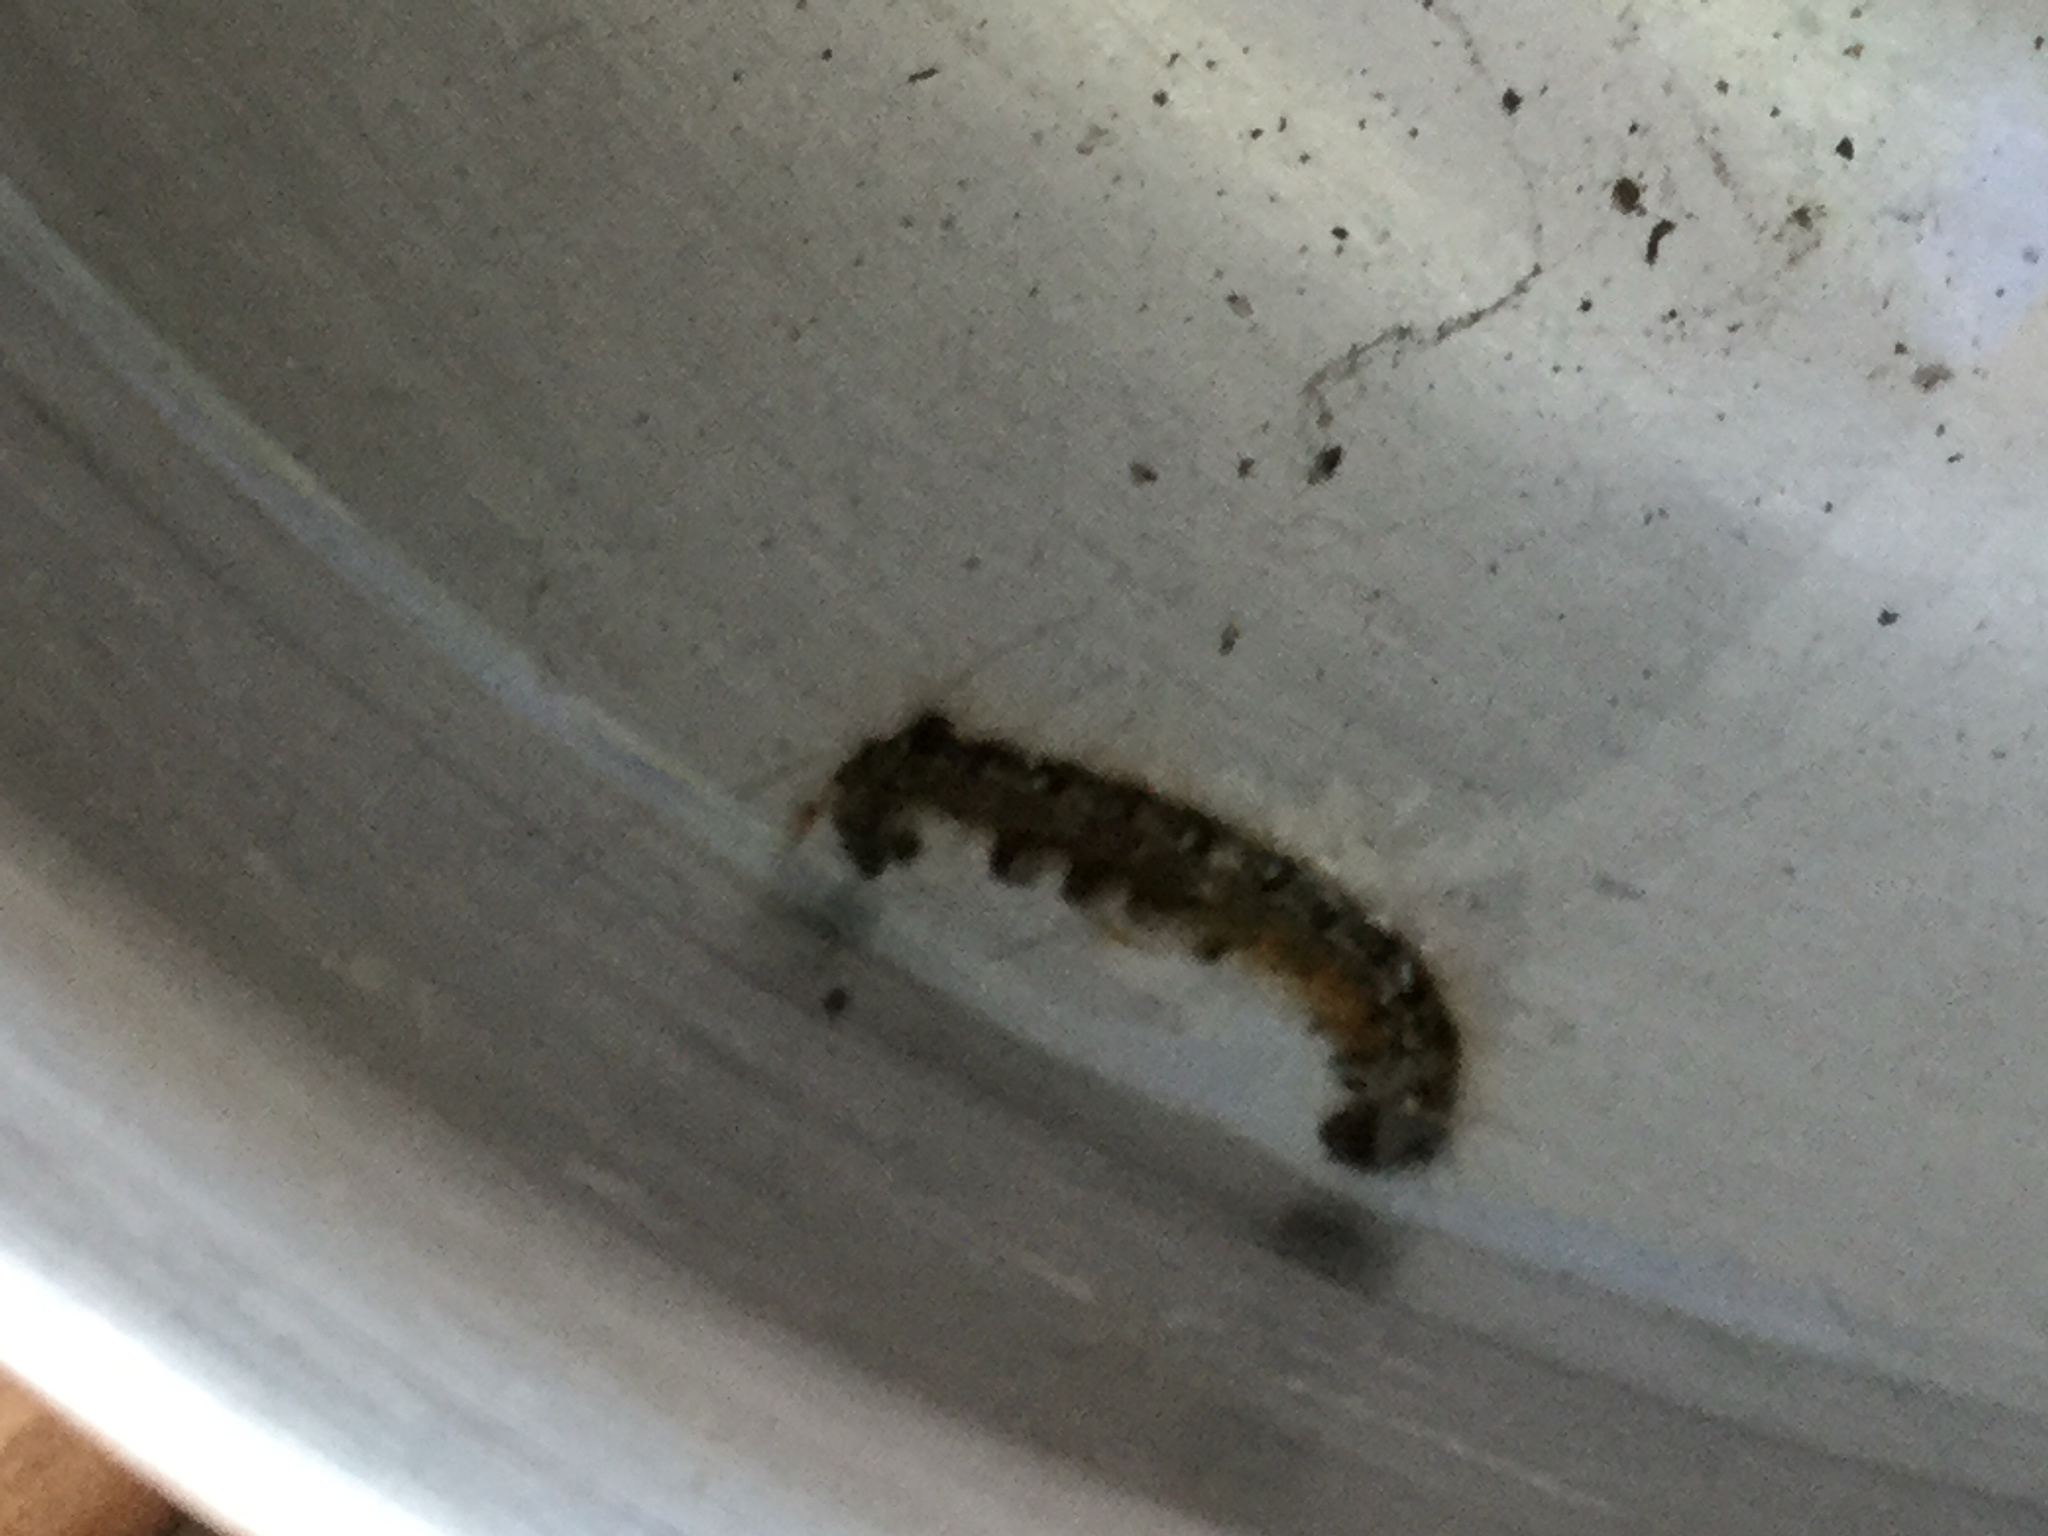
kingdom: Animalia
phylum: Arthropoda
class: Insecta
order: Lepidoptera
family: Lasiocampidae
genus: Malacosoma
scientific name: Malacosoma americana
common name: Eastern tent caterpillar moth
